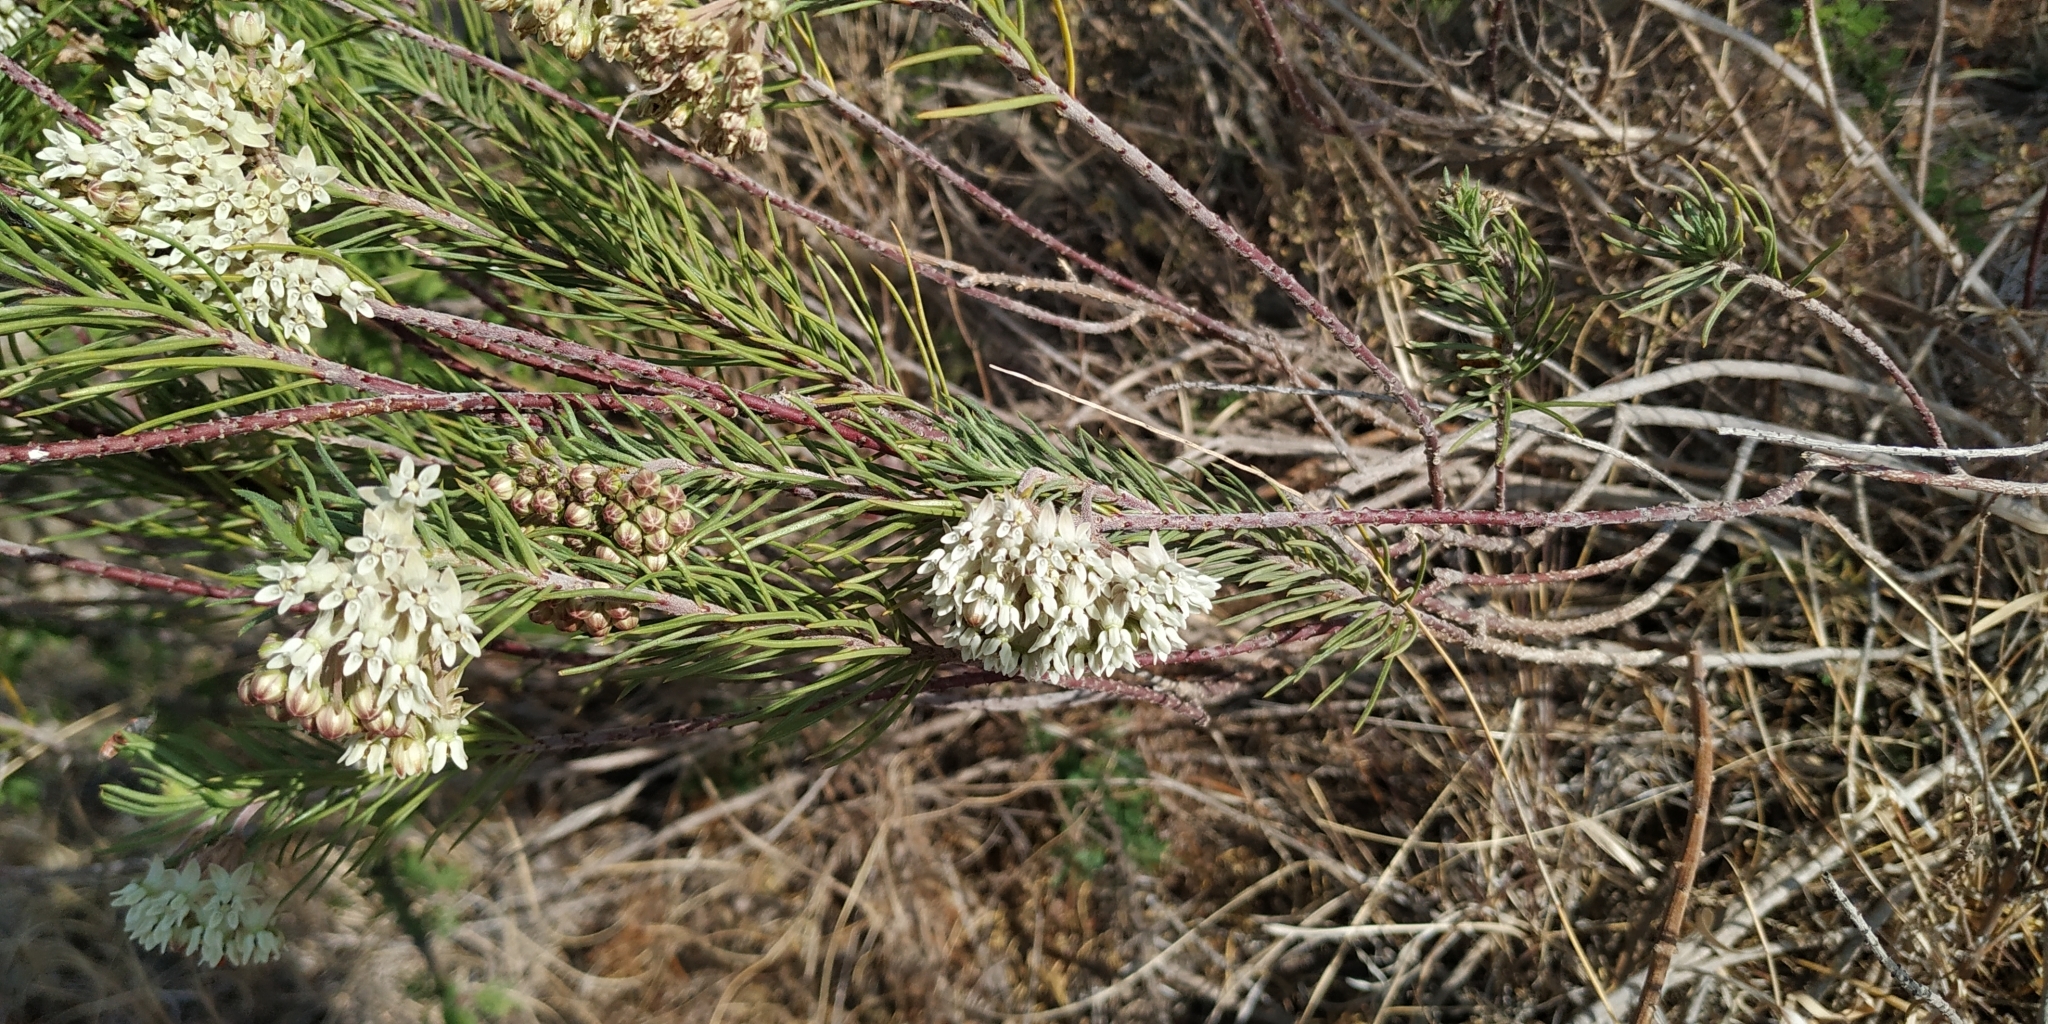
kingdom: Plantae
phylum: Tracheophyta
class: Magnoliopsida
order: Gentianales
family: Apocynaceae
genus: Asclepias
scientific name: Asclepias linaria
